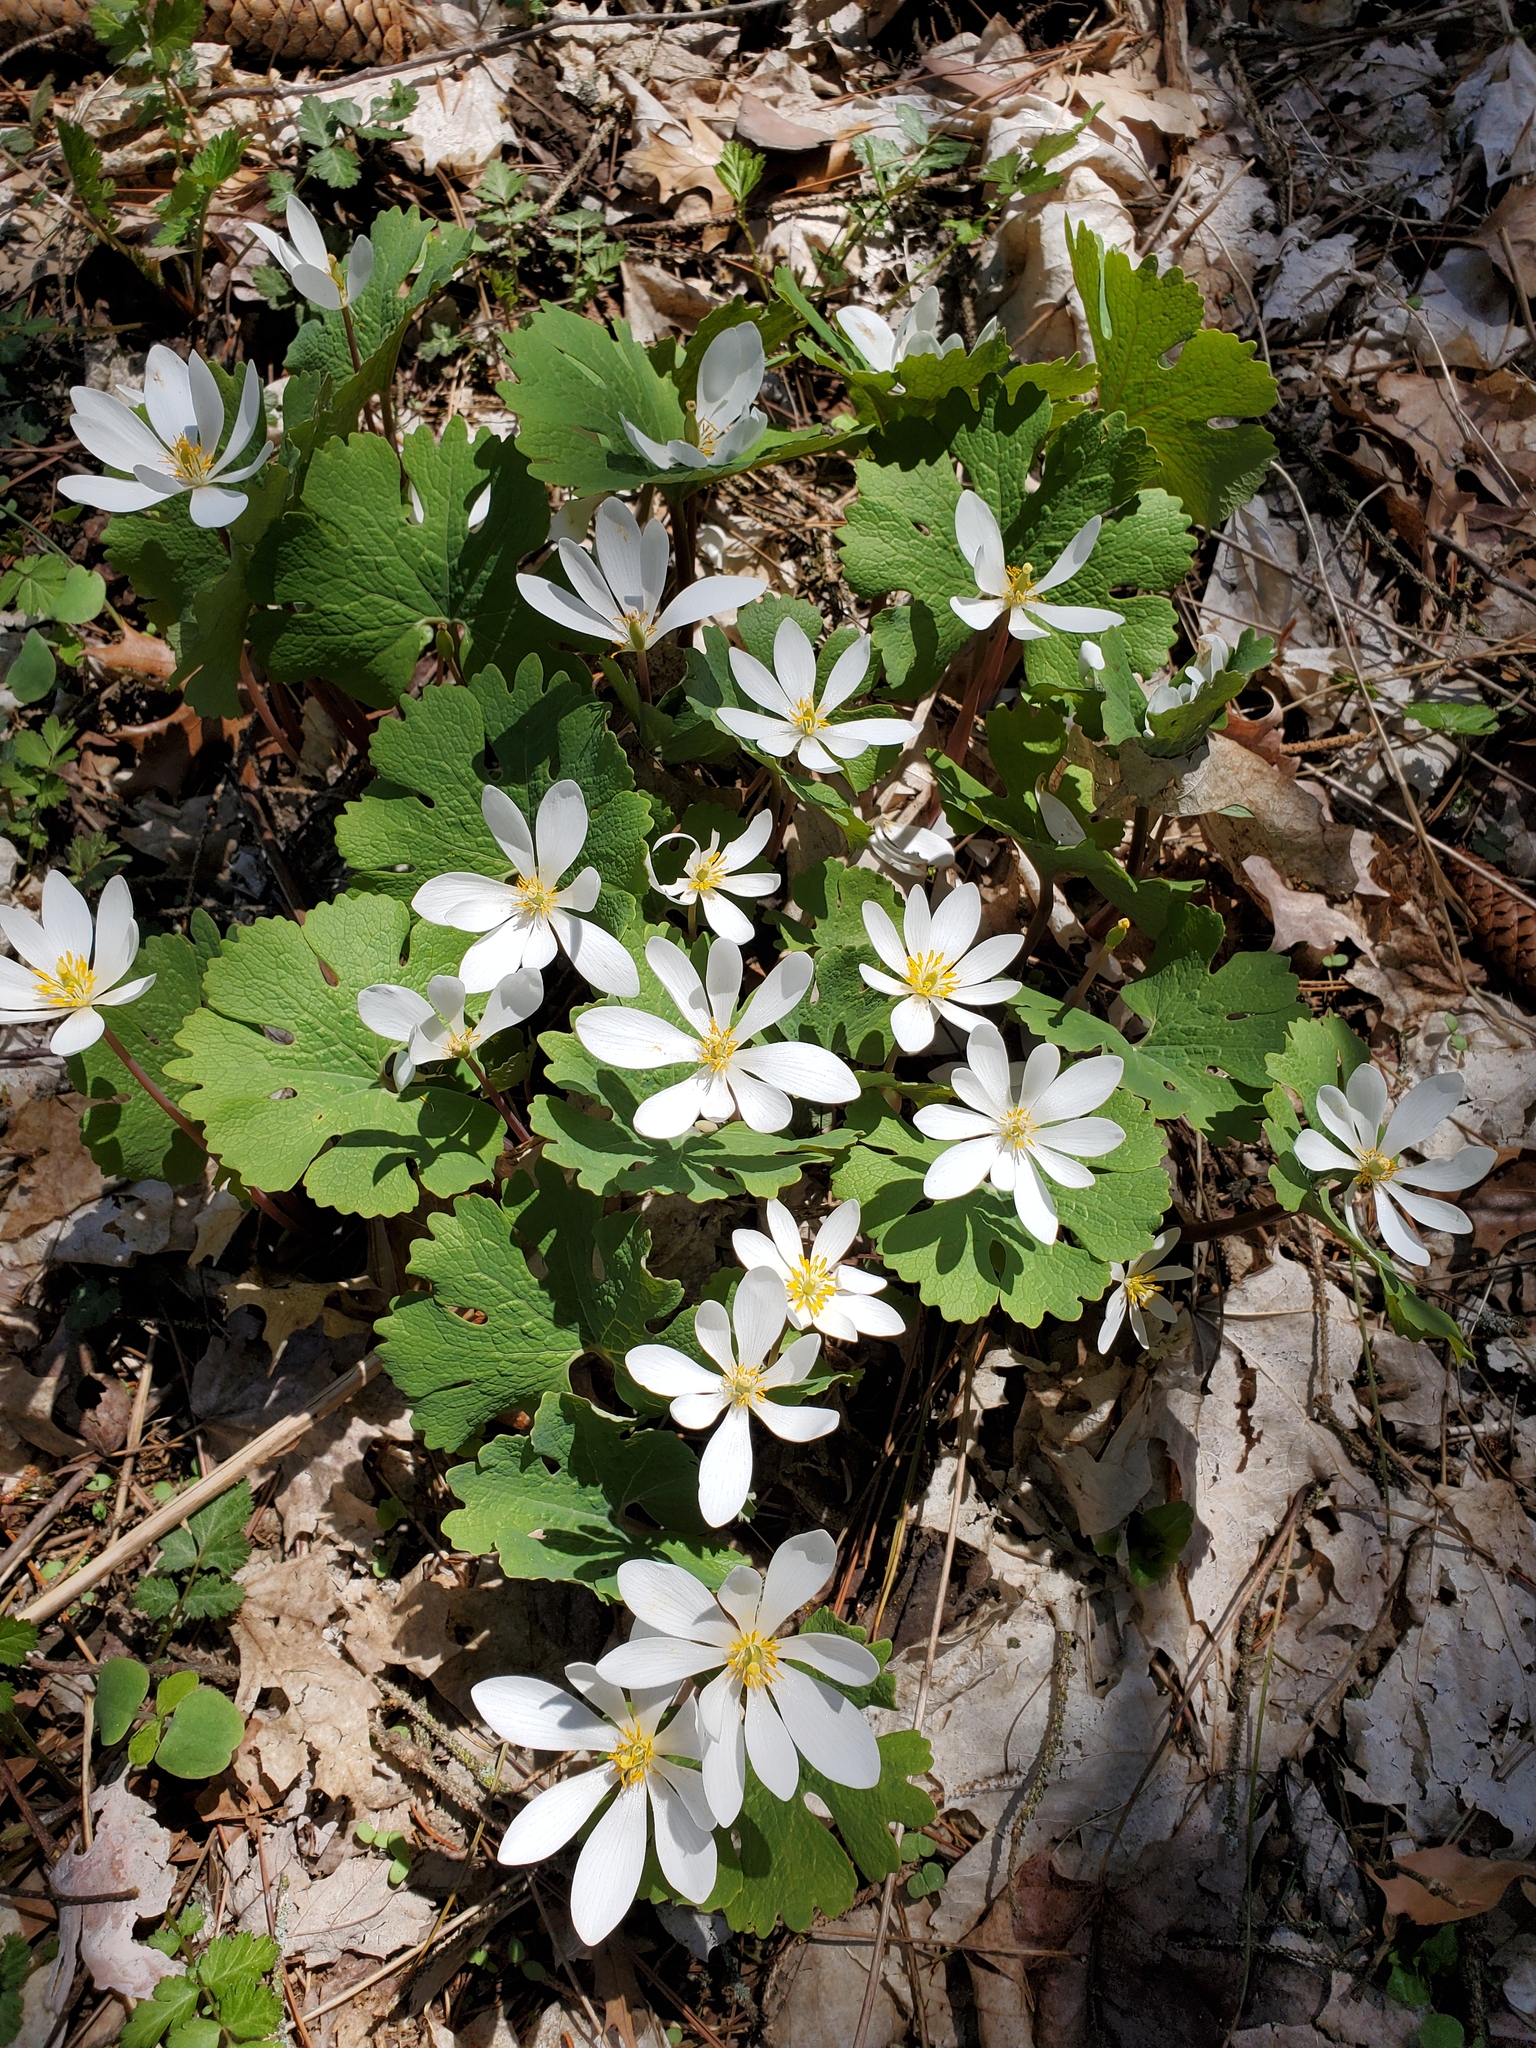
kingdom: Plantae
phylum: Tracheophyta
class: Magnoliopsida
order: Ranunculales
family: Papaveraceae
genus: Sanguinaria
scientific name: Sanguinaria canadensis
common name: Bloodroot
